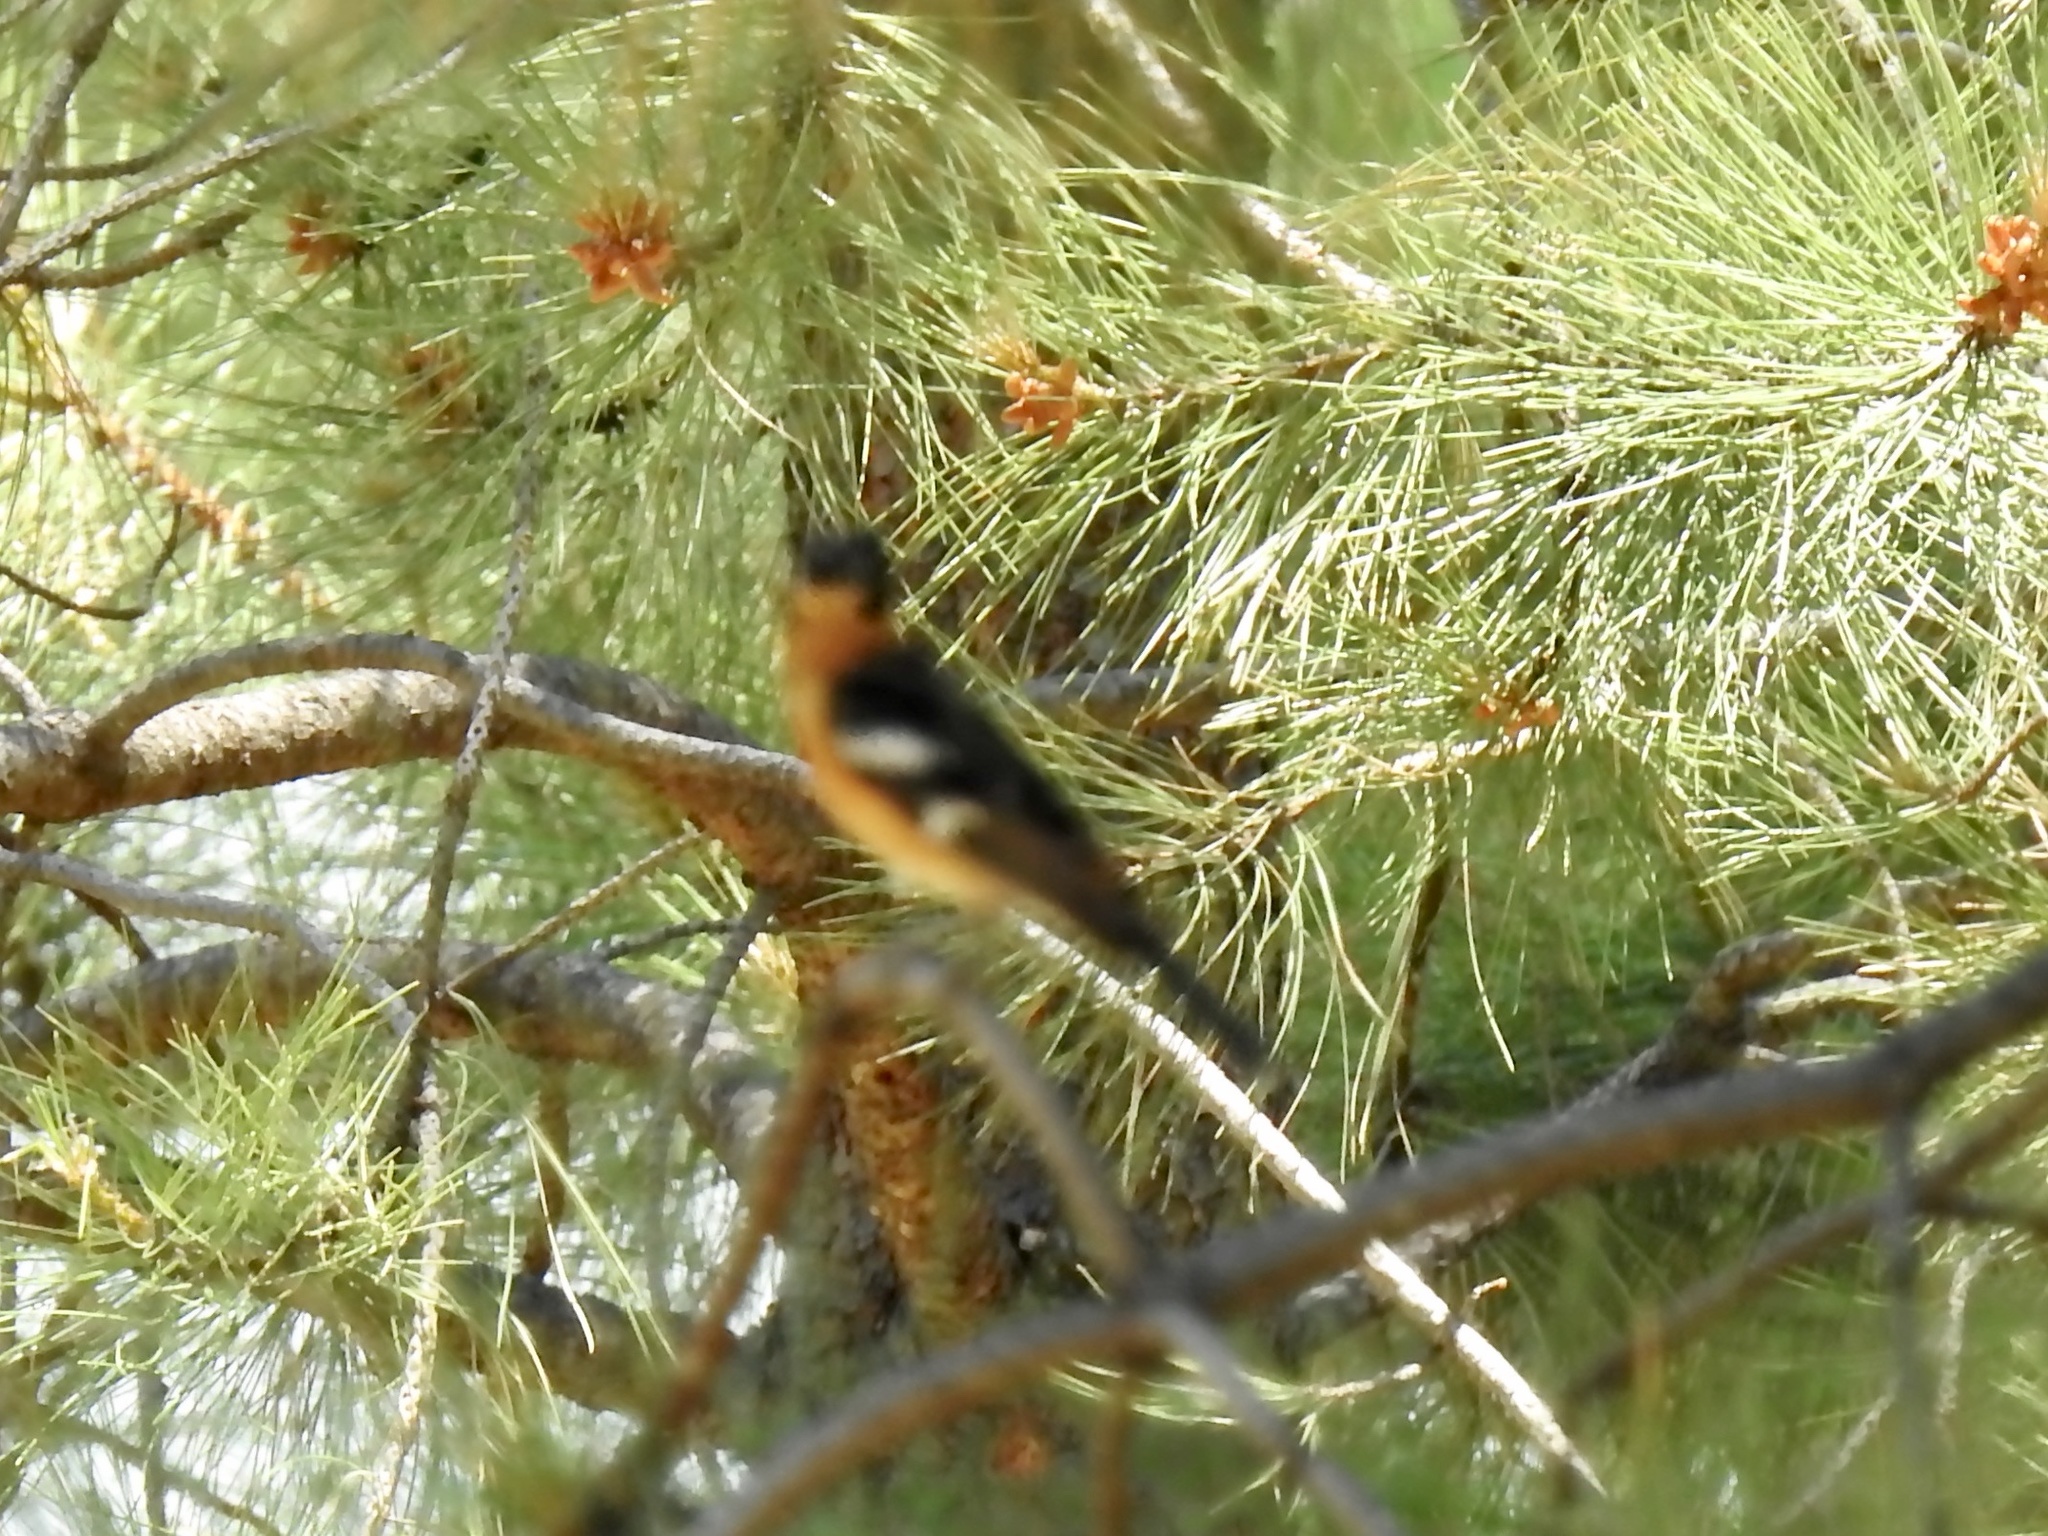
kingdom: Animalia
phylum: Chordata
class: Aves
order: Passeriformes
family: Cardinalidae
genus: Pheucticus
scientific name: Pheucticus melanocephalus
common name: Black-headed grosbeak
